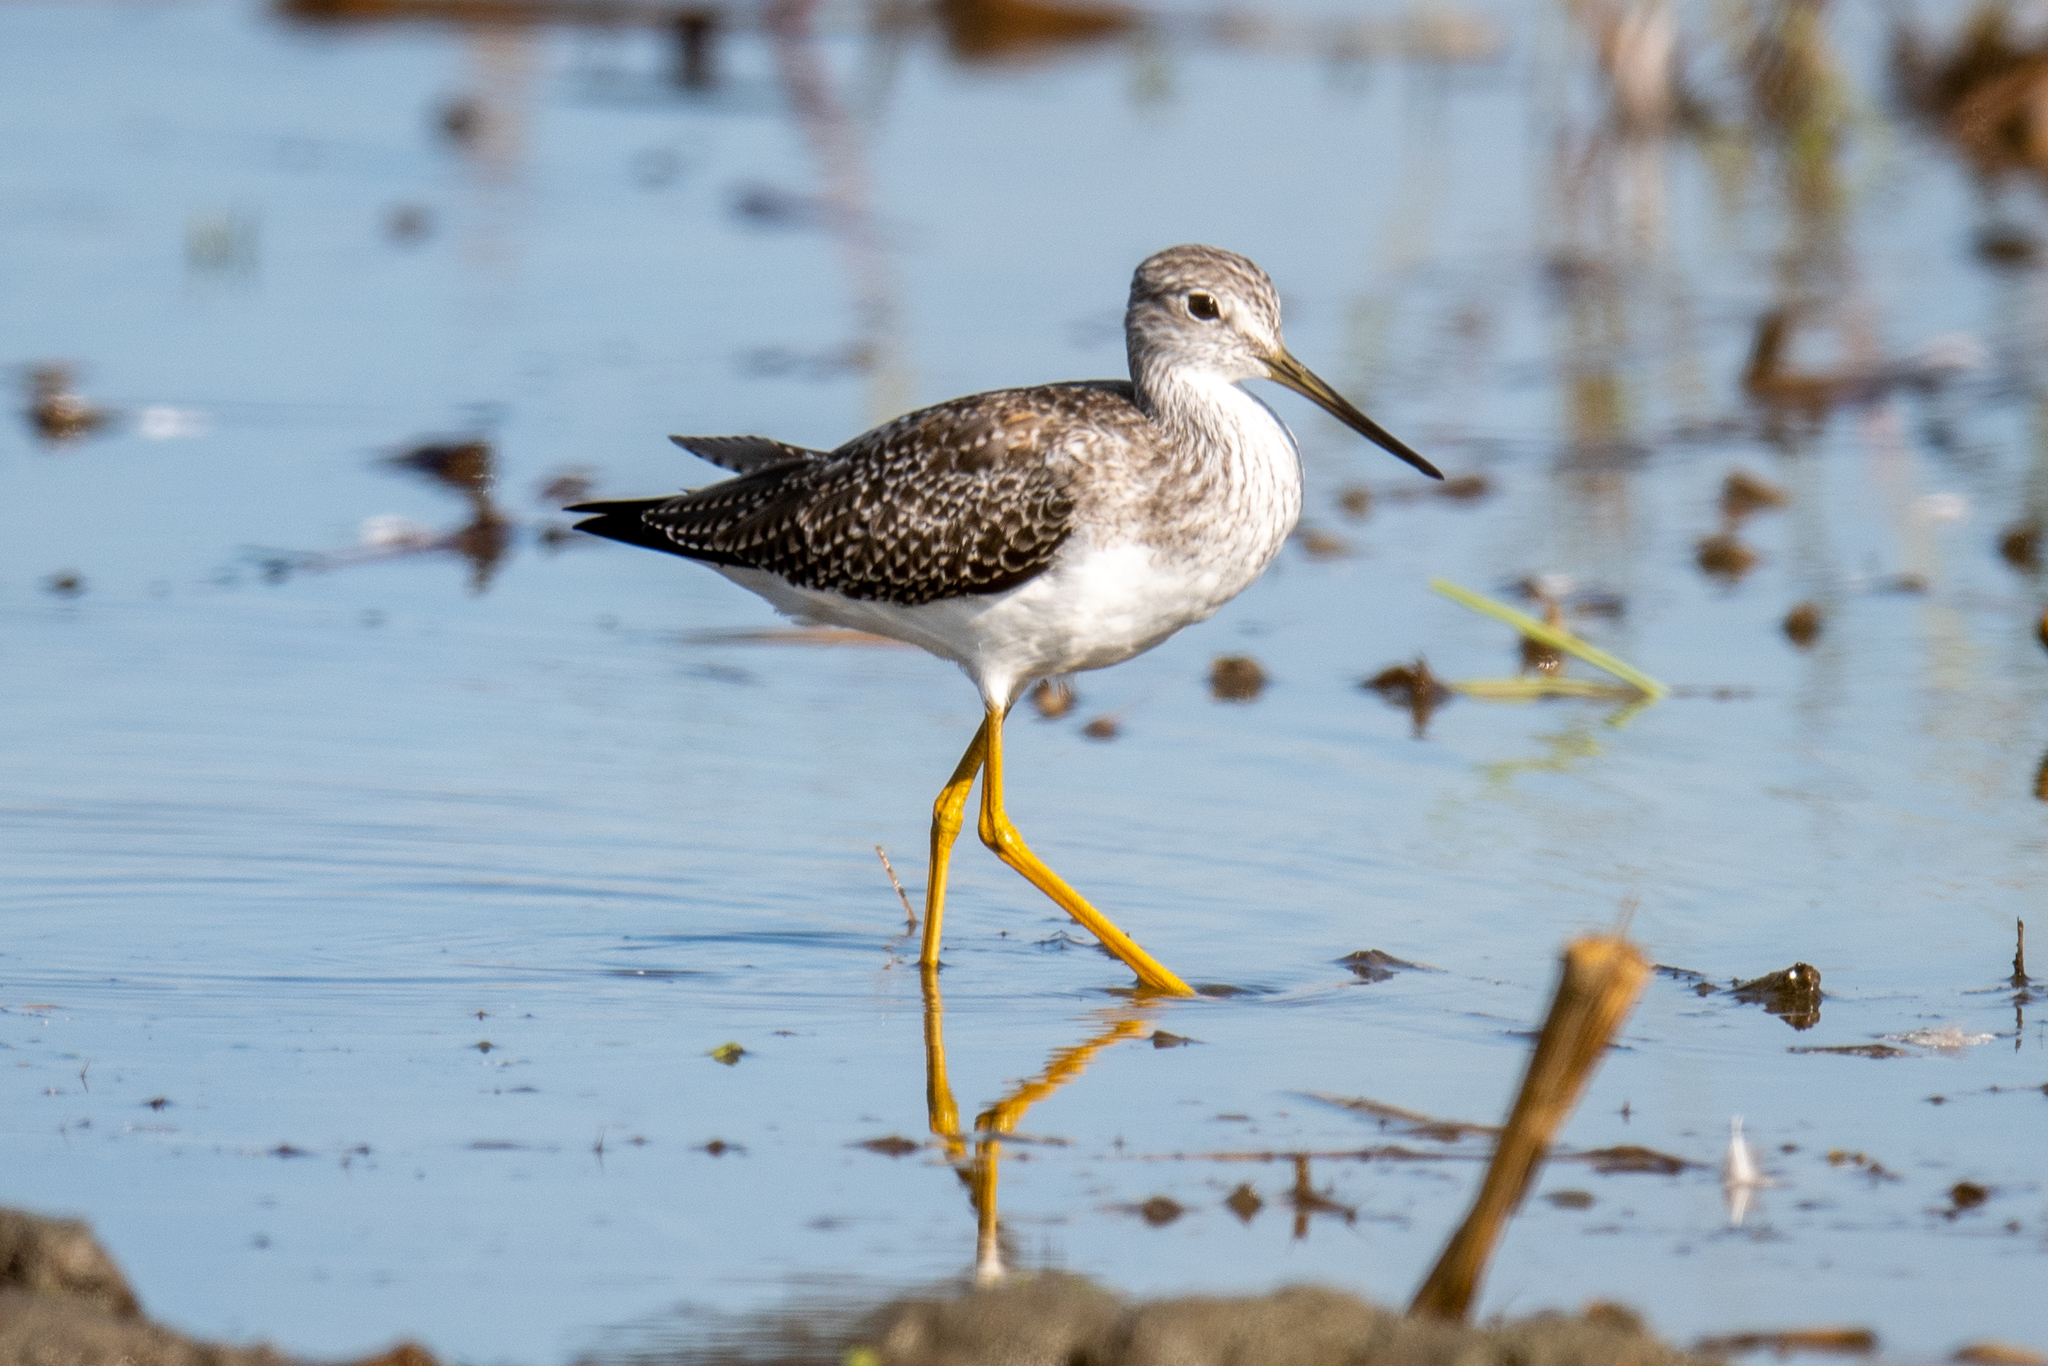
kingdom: Animalia
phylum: Chordata
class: Aves
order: Charadriiformes
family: Scolopacidae
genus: Tringa
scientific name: Tringa melanoleuca
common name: Greater yellowlegs
